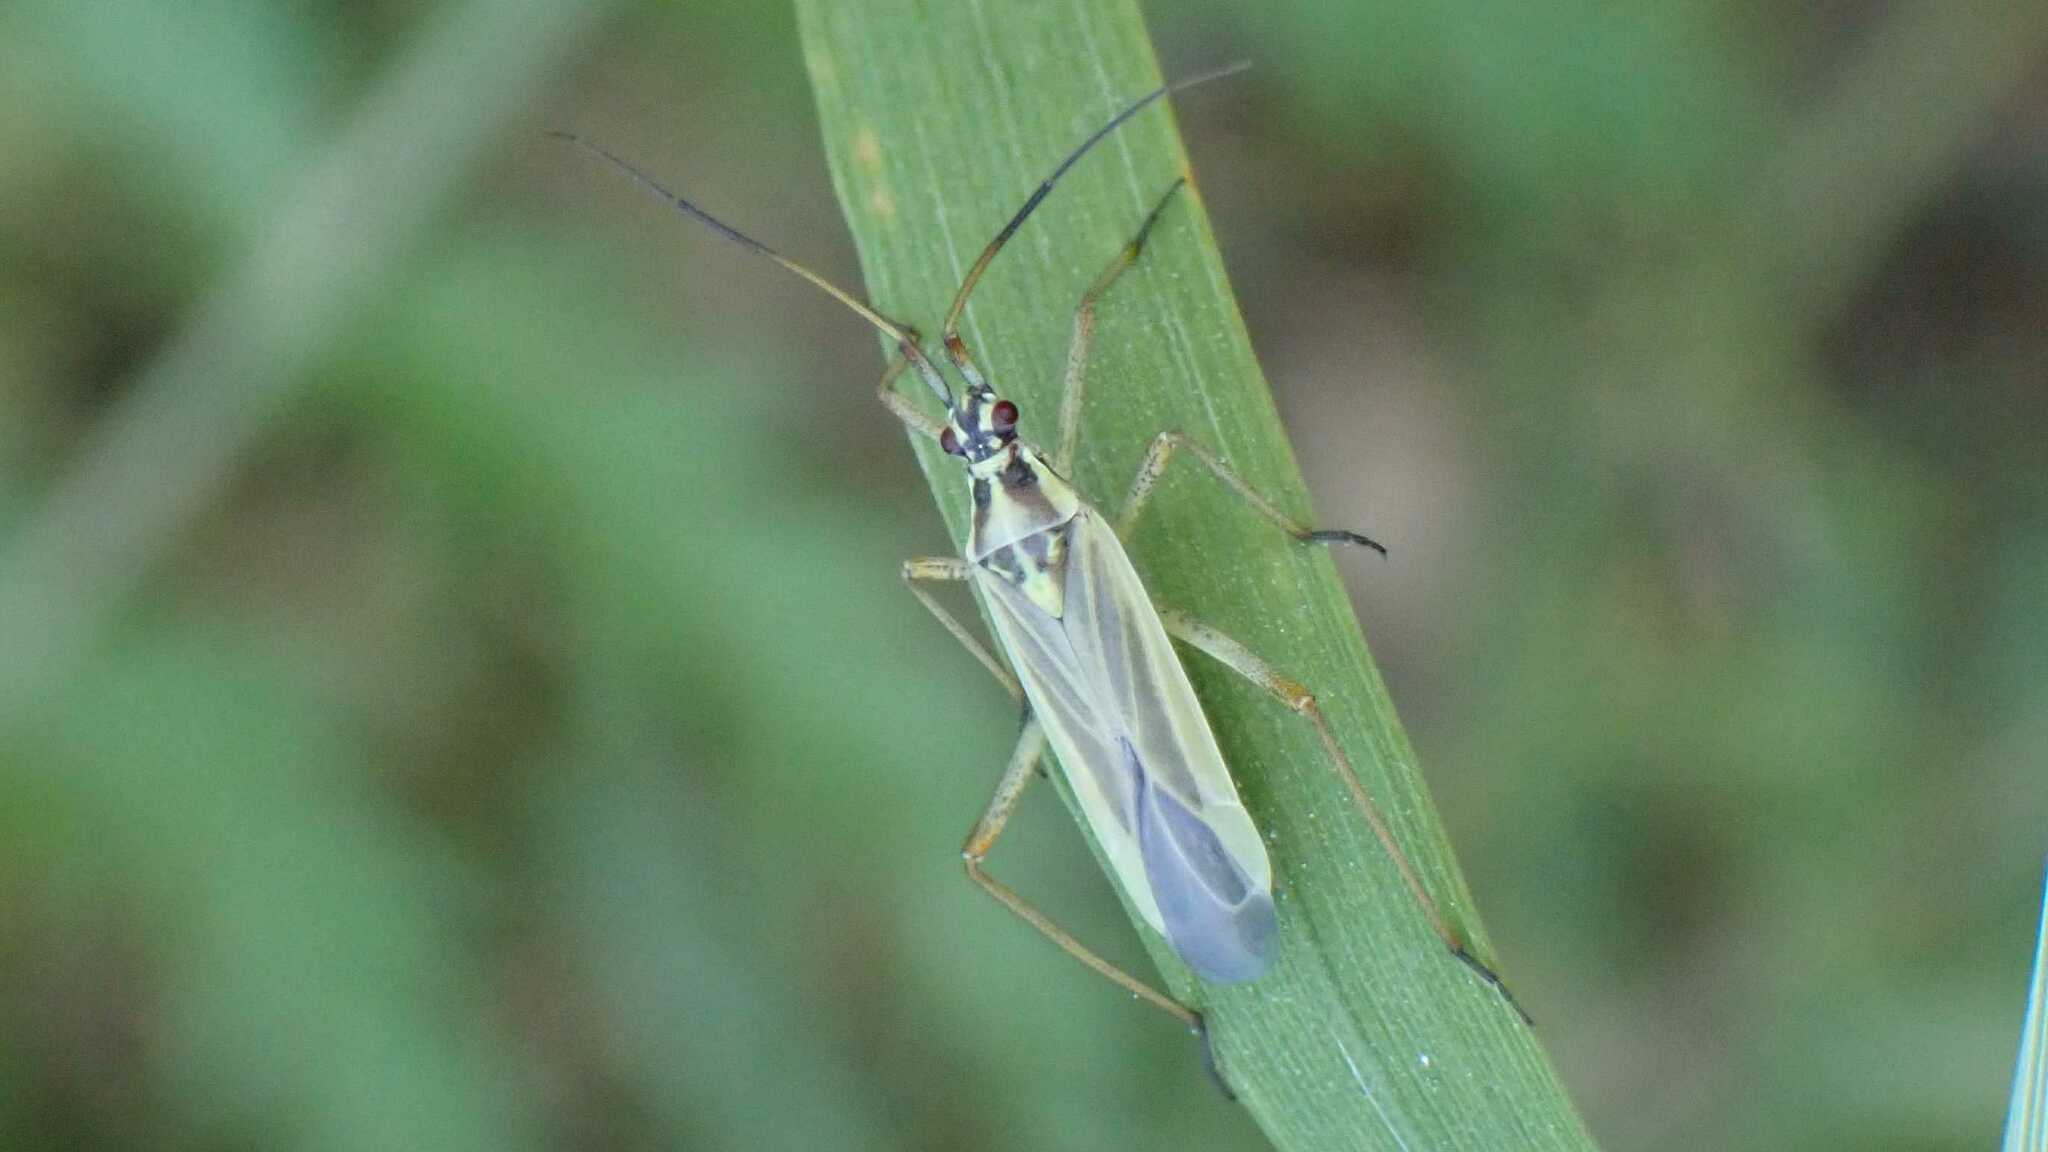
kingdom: Animalia
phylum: Arthropoda
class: Insecta
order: Hemiptera
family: Miridae
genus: Leptopterna
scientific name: Leptopterna dolabrata
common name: Meadow plant bug
